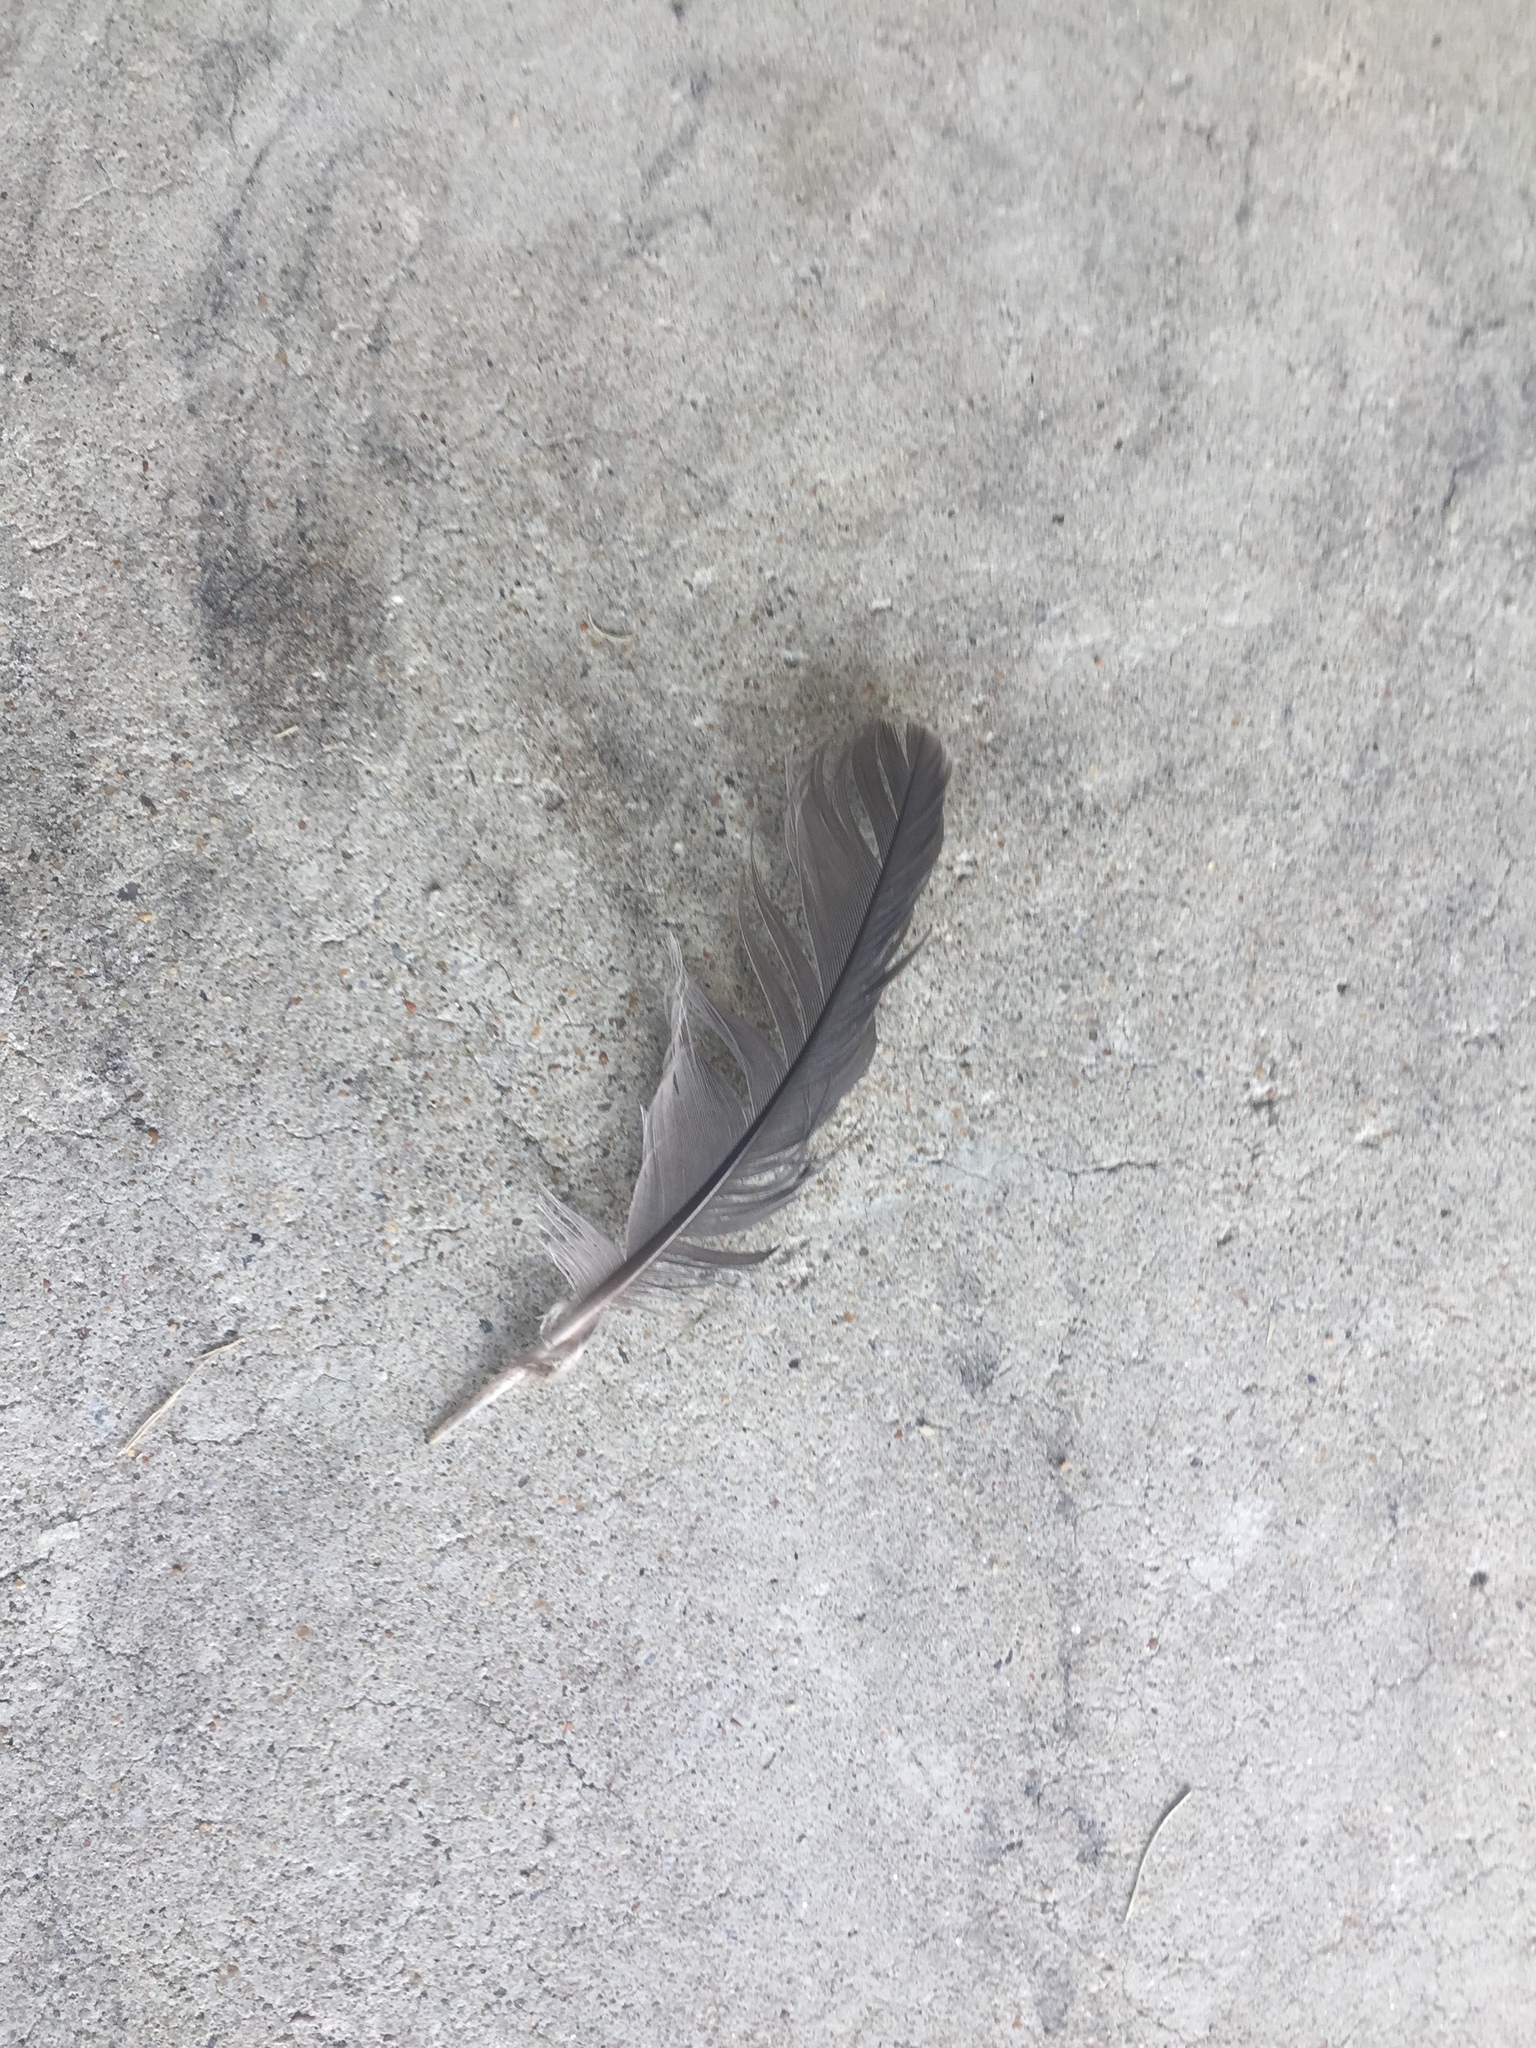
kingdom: Animalia
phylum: Chordata
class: Aves
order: Columbiformes
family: Columbidae
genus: Zenaida
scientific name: Zenaida macroura
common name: Mourning dove
